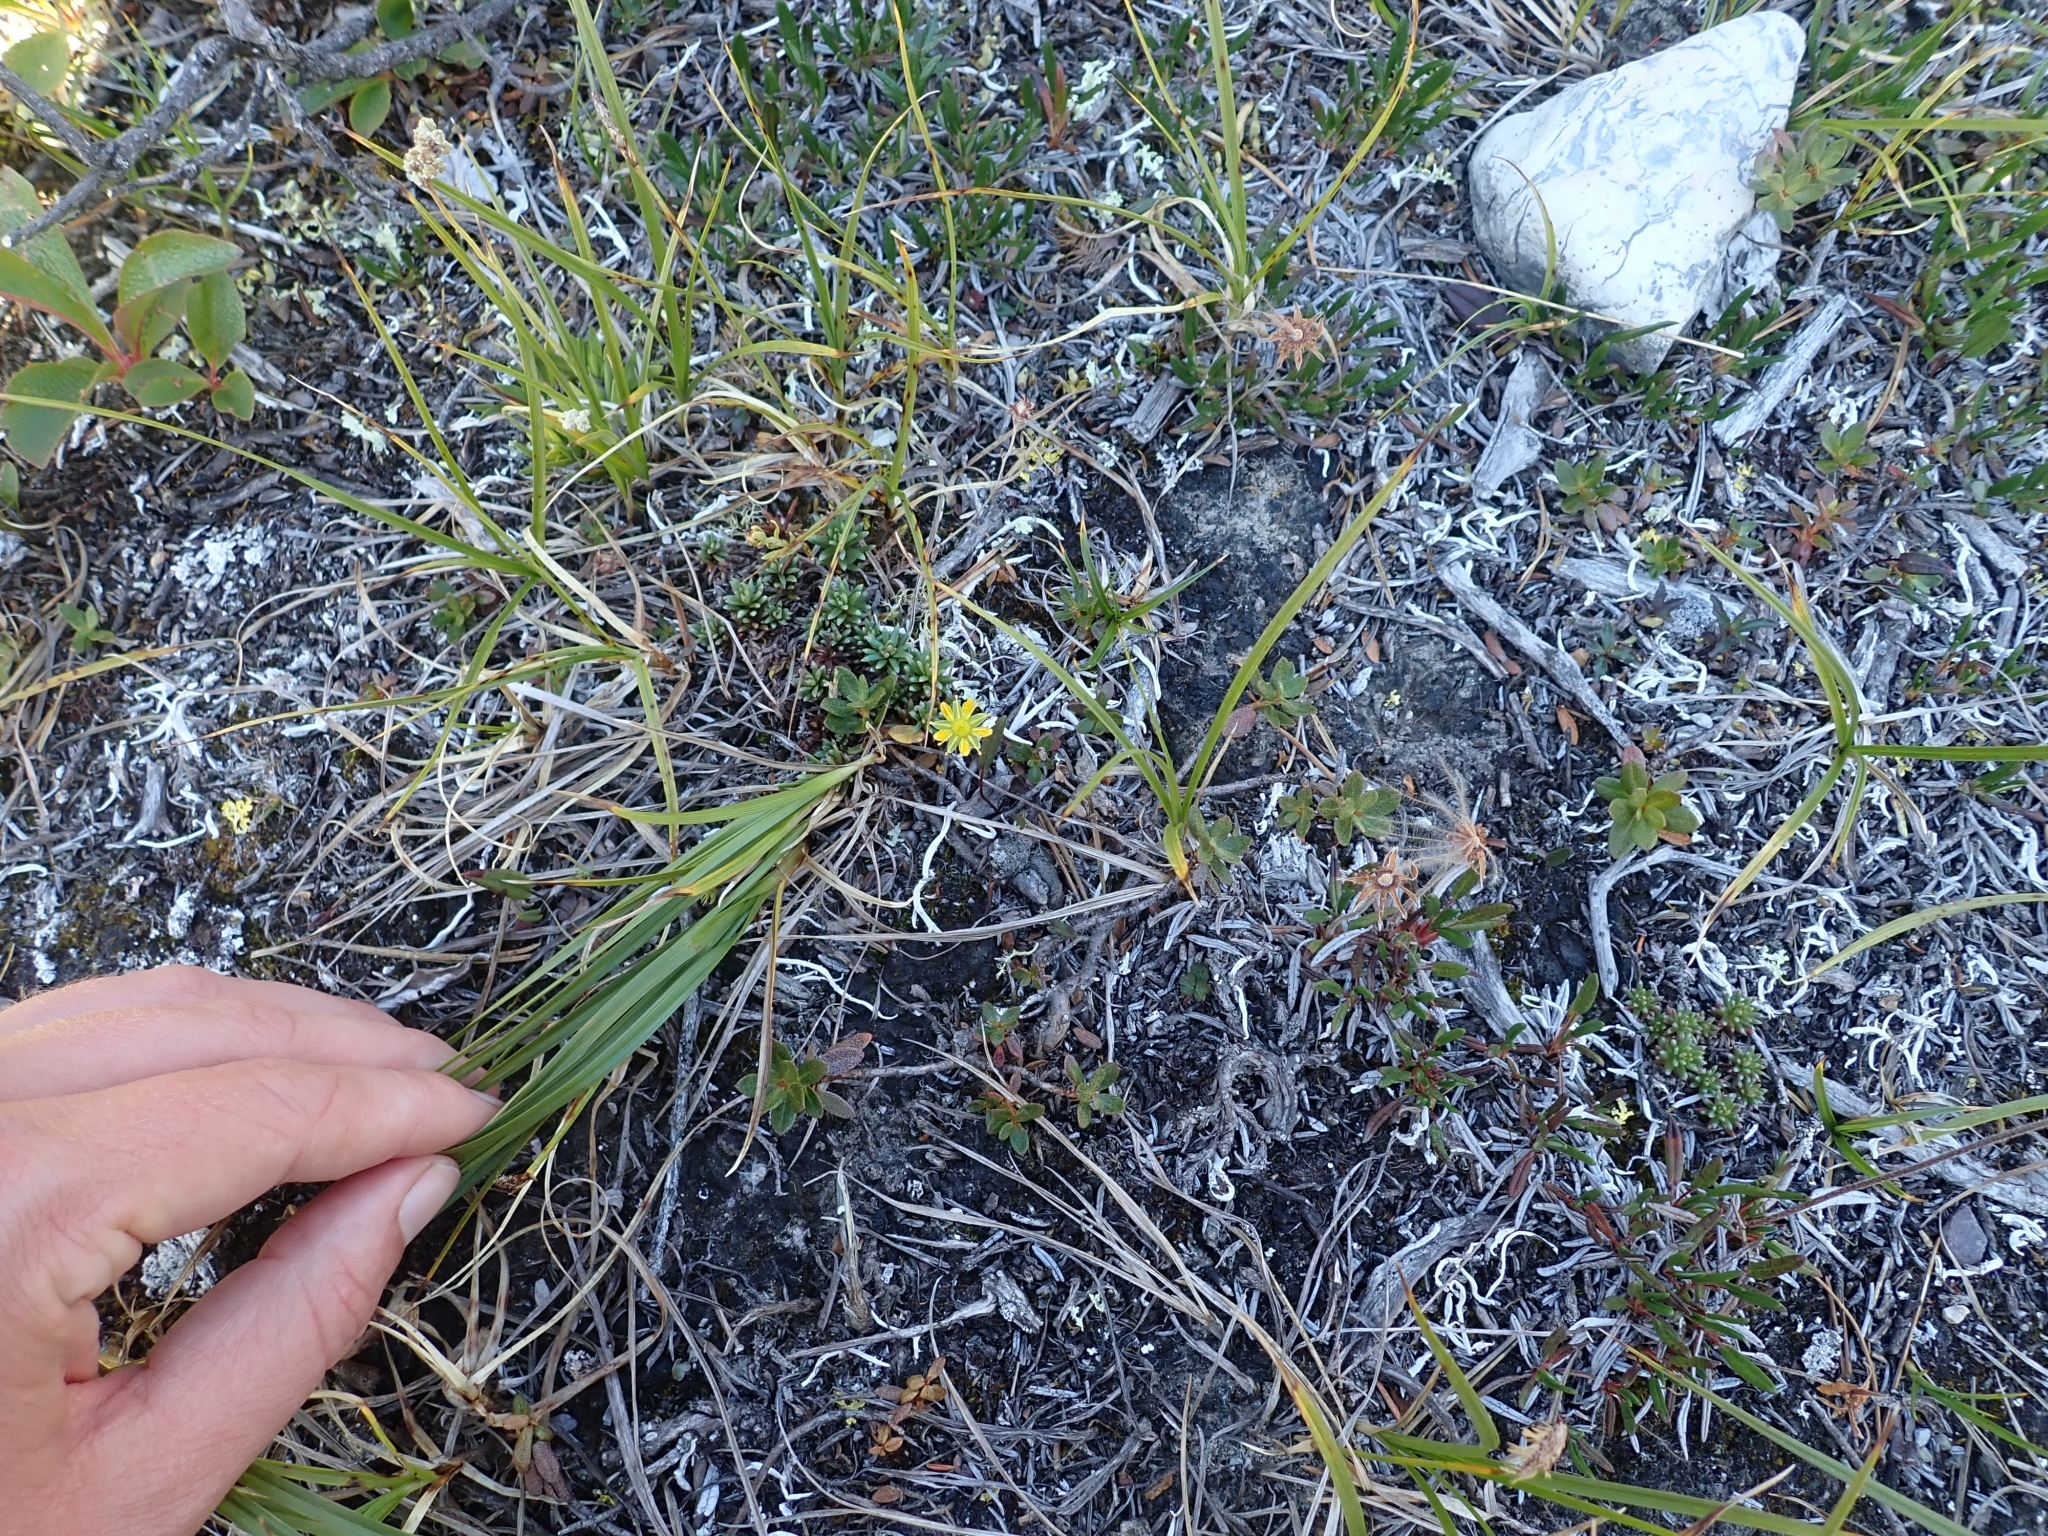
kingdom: Plantae
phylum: Tracheophyta
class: Magnoliopsida
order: Saxifragales
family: Saxifragaceae
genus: Saxifraga
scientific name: Saxifraga aizoides
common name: Yellow mountain saxifrage
